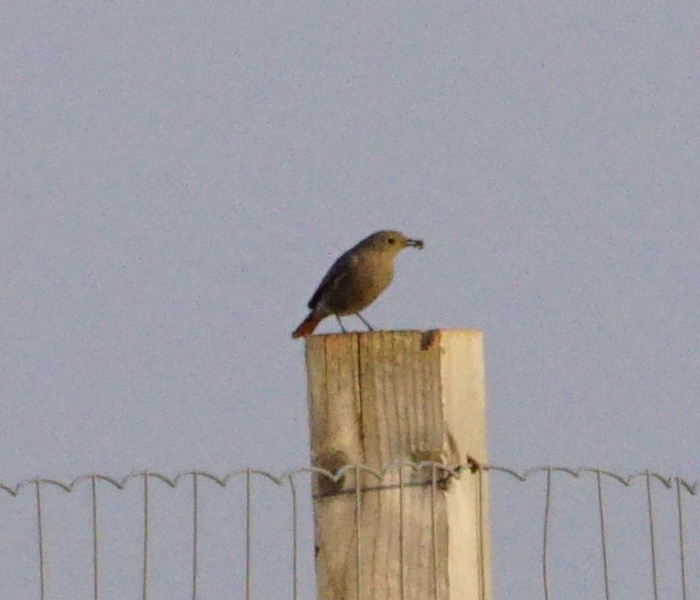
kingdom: Animalia
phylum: Chordata
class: Aves
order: Passeriformes
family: Muscicapidae
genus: Phoenicurus
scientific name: Phoenicurus ochruros
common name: Black redstart
